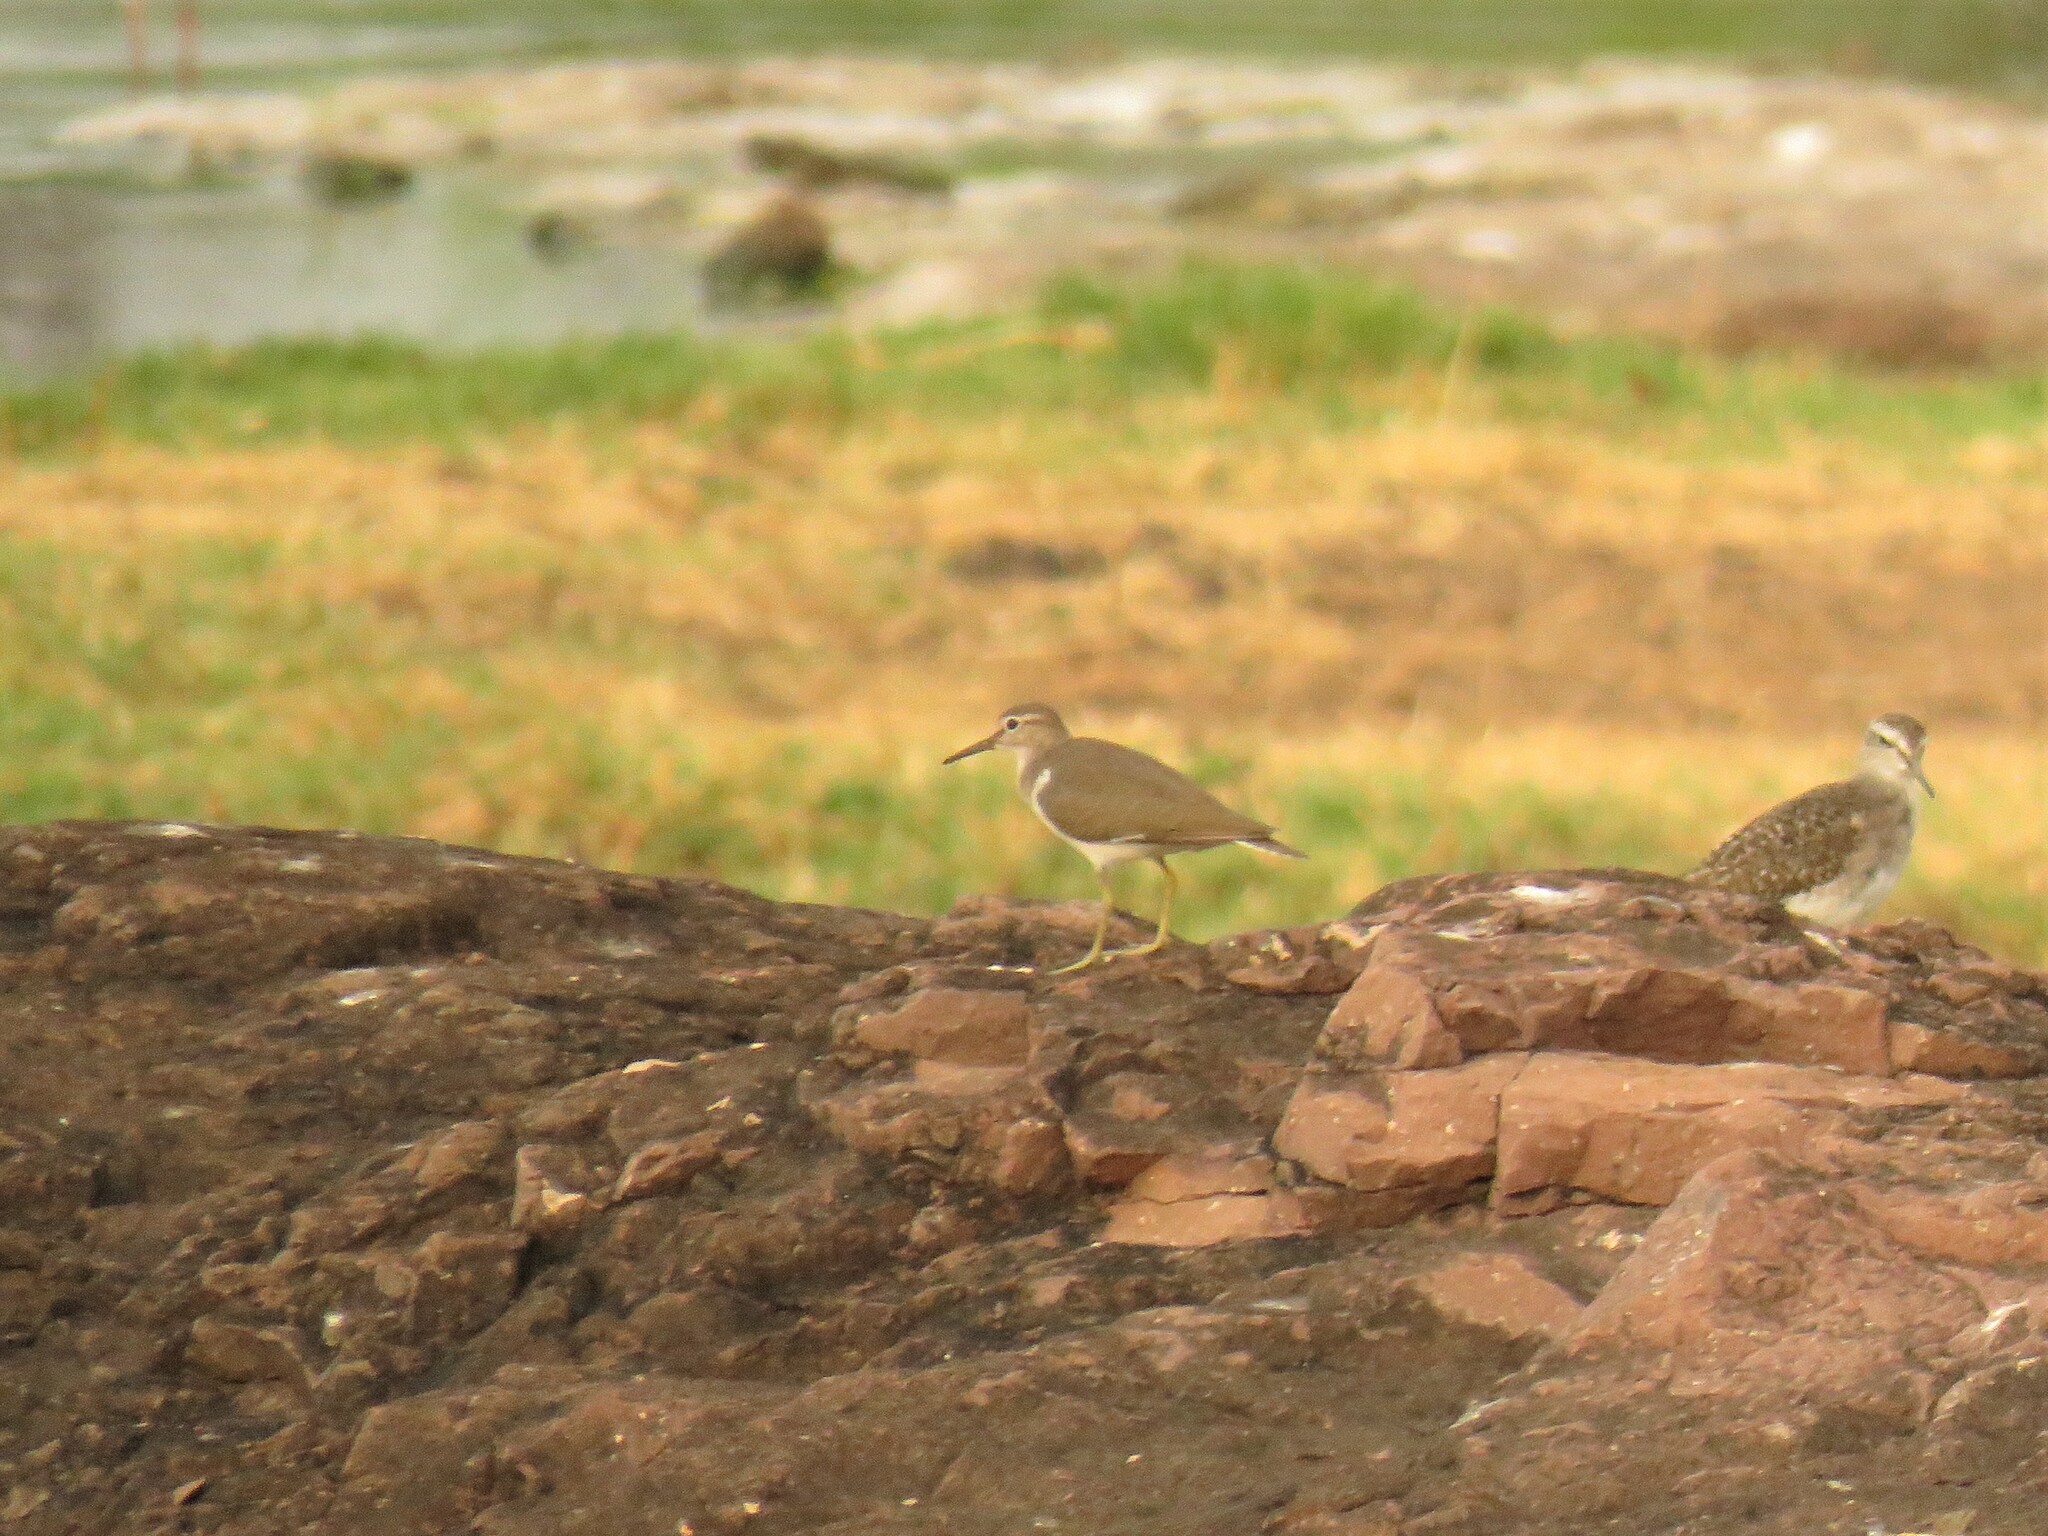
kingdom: Animalia
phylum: Chordata
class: Aves
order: Charadriiformes
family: Scolopacidae
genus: Actitis
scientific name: Actitis hypoleucos
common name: Common sandpiper
